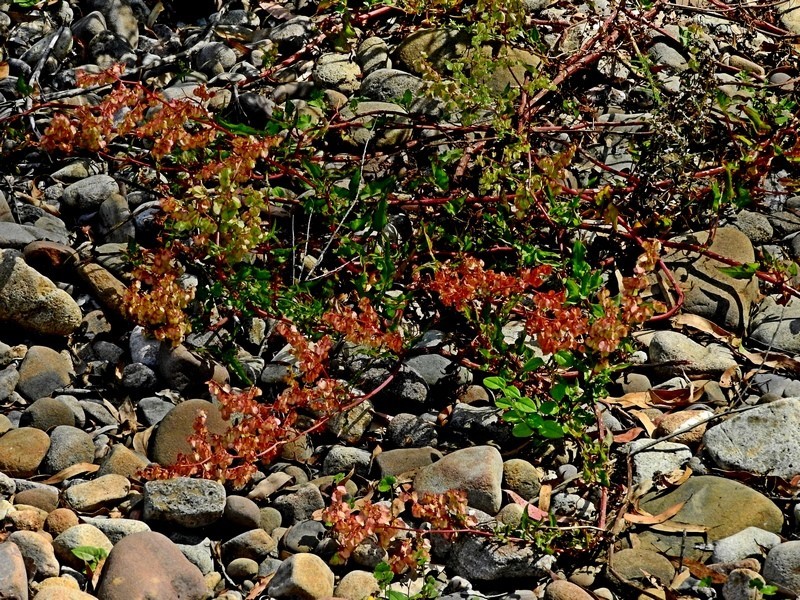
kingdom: Plantae
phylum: Tracheophyta
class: Magnoliopsida
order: Caryophyllales
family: Polygonaceae
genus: Rumex
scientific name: Rumex sagittatus
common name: Climbing dock
